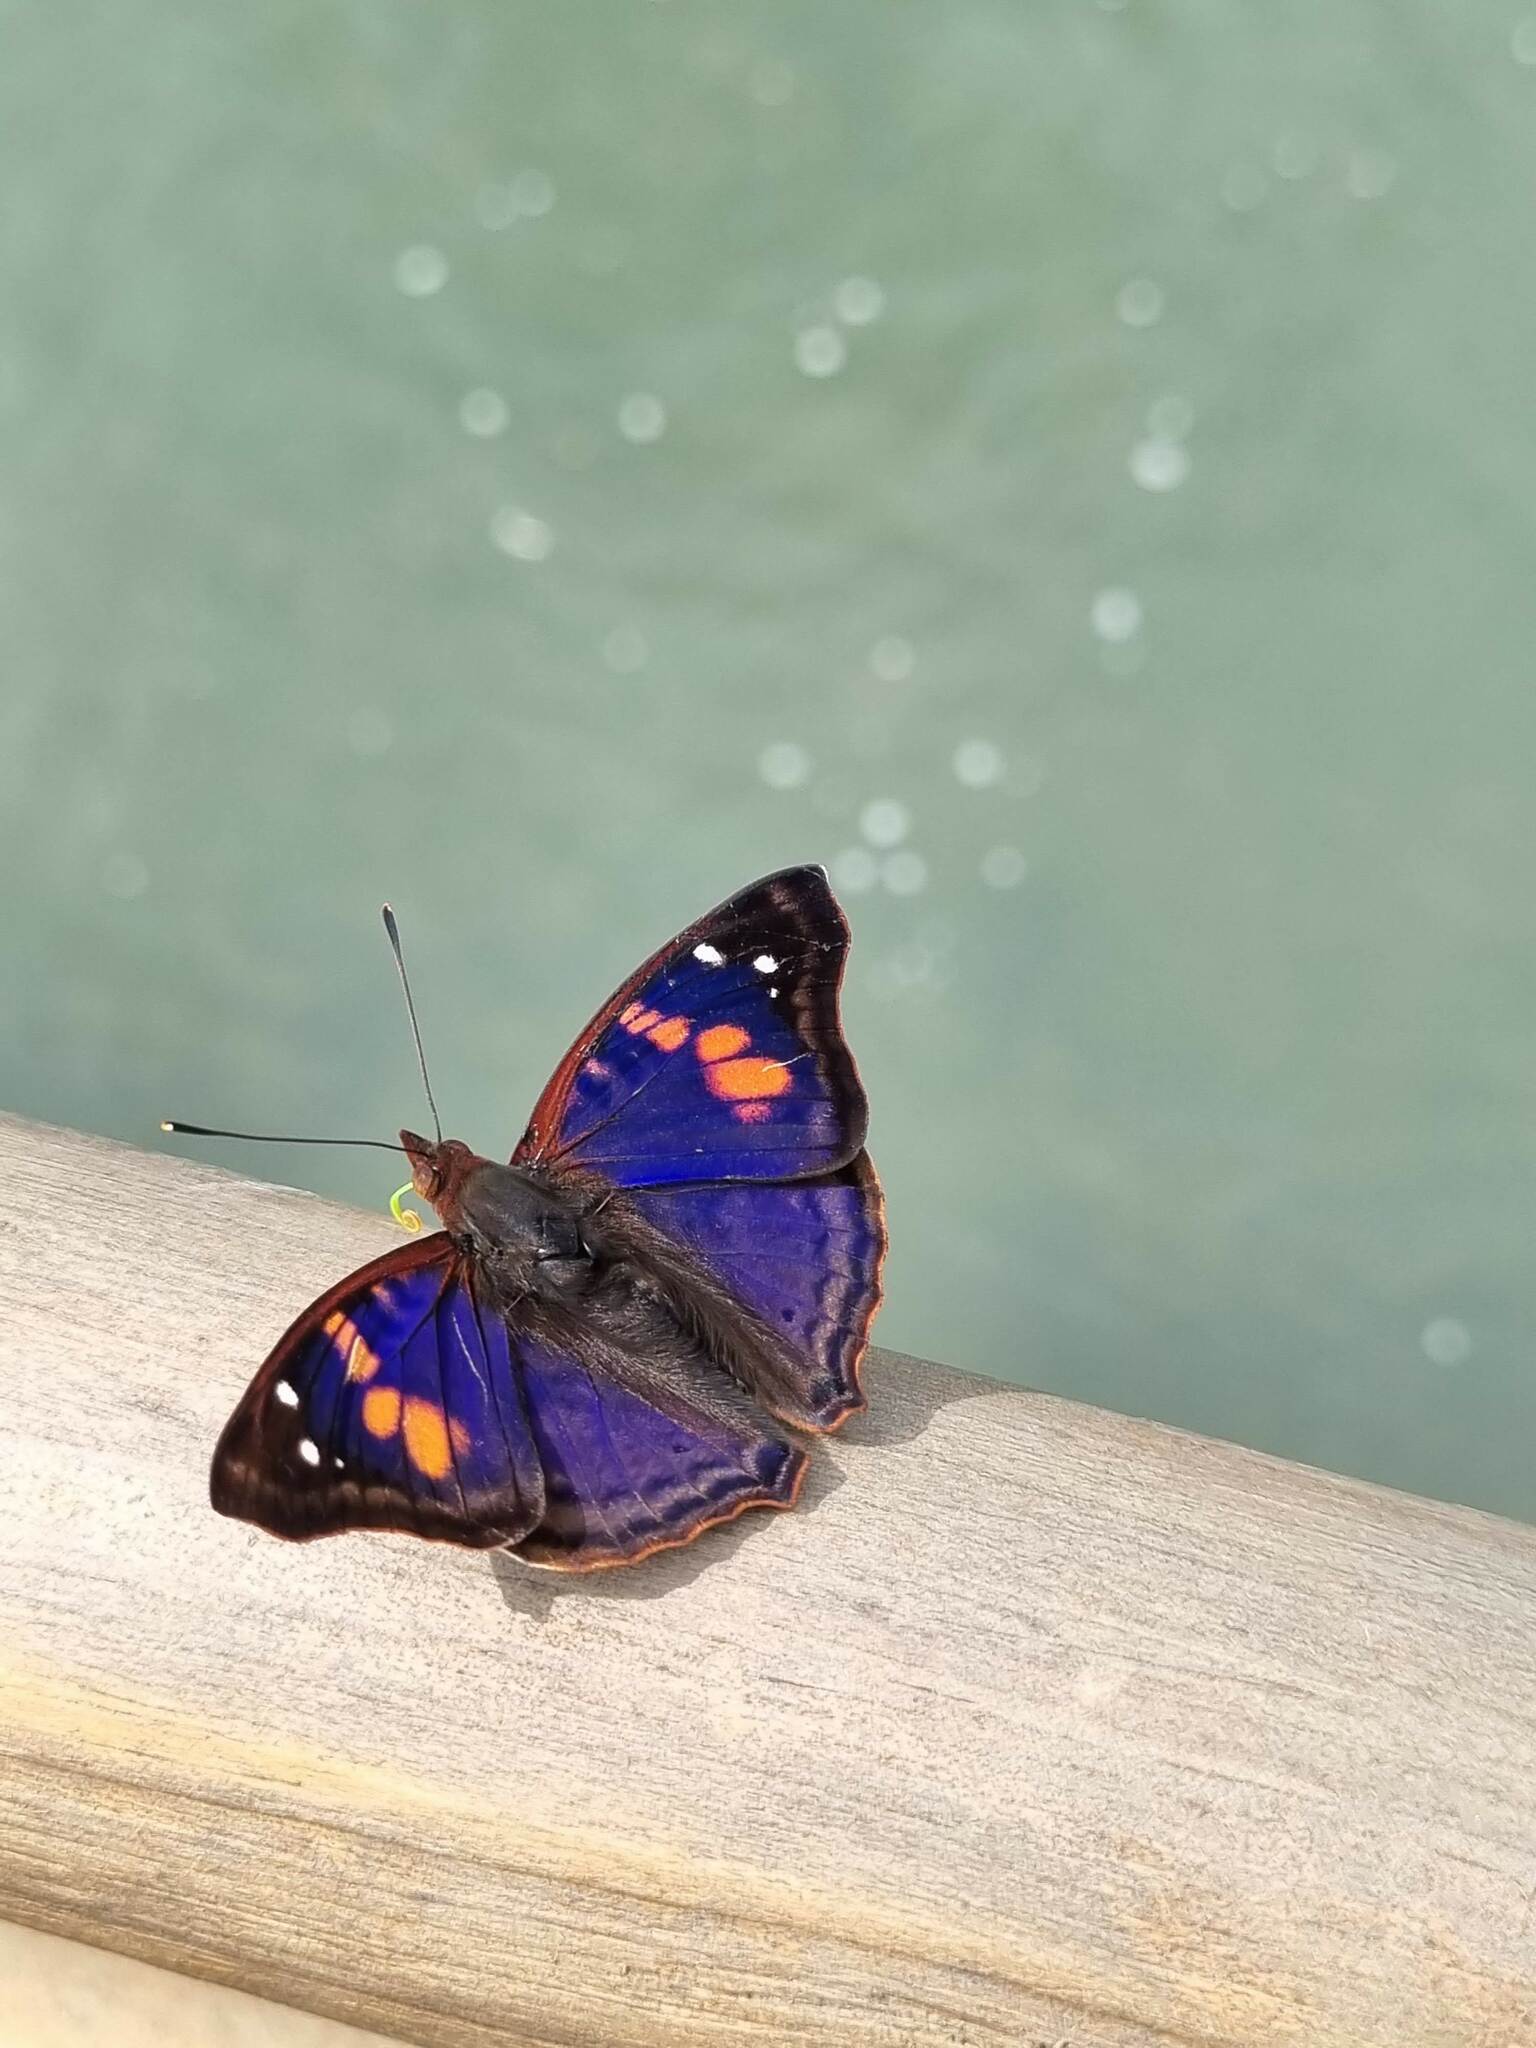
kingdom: Animalia
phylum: Arthropoda
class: Insecta
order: Lepidoptera
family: Nymphalidae
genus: Doxocopa
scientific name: Doxocopa agathina
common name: Agathina emperor
